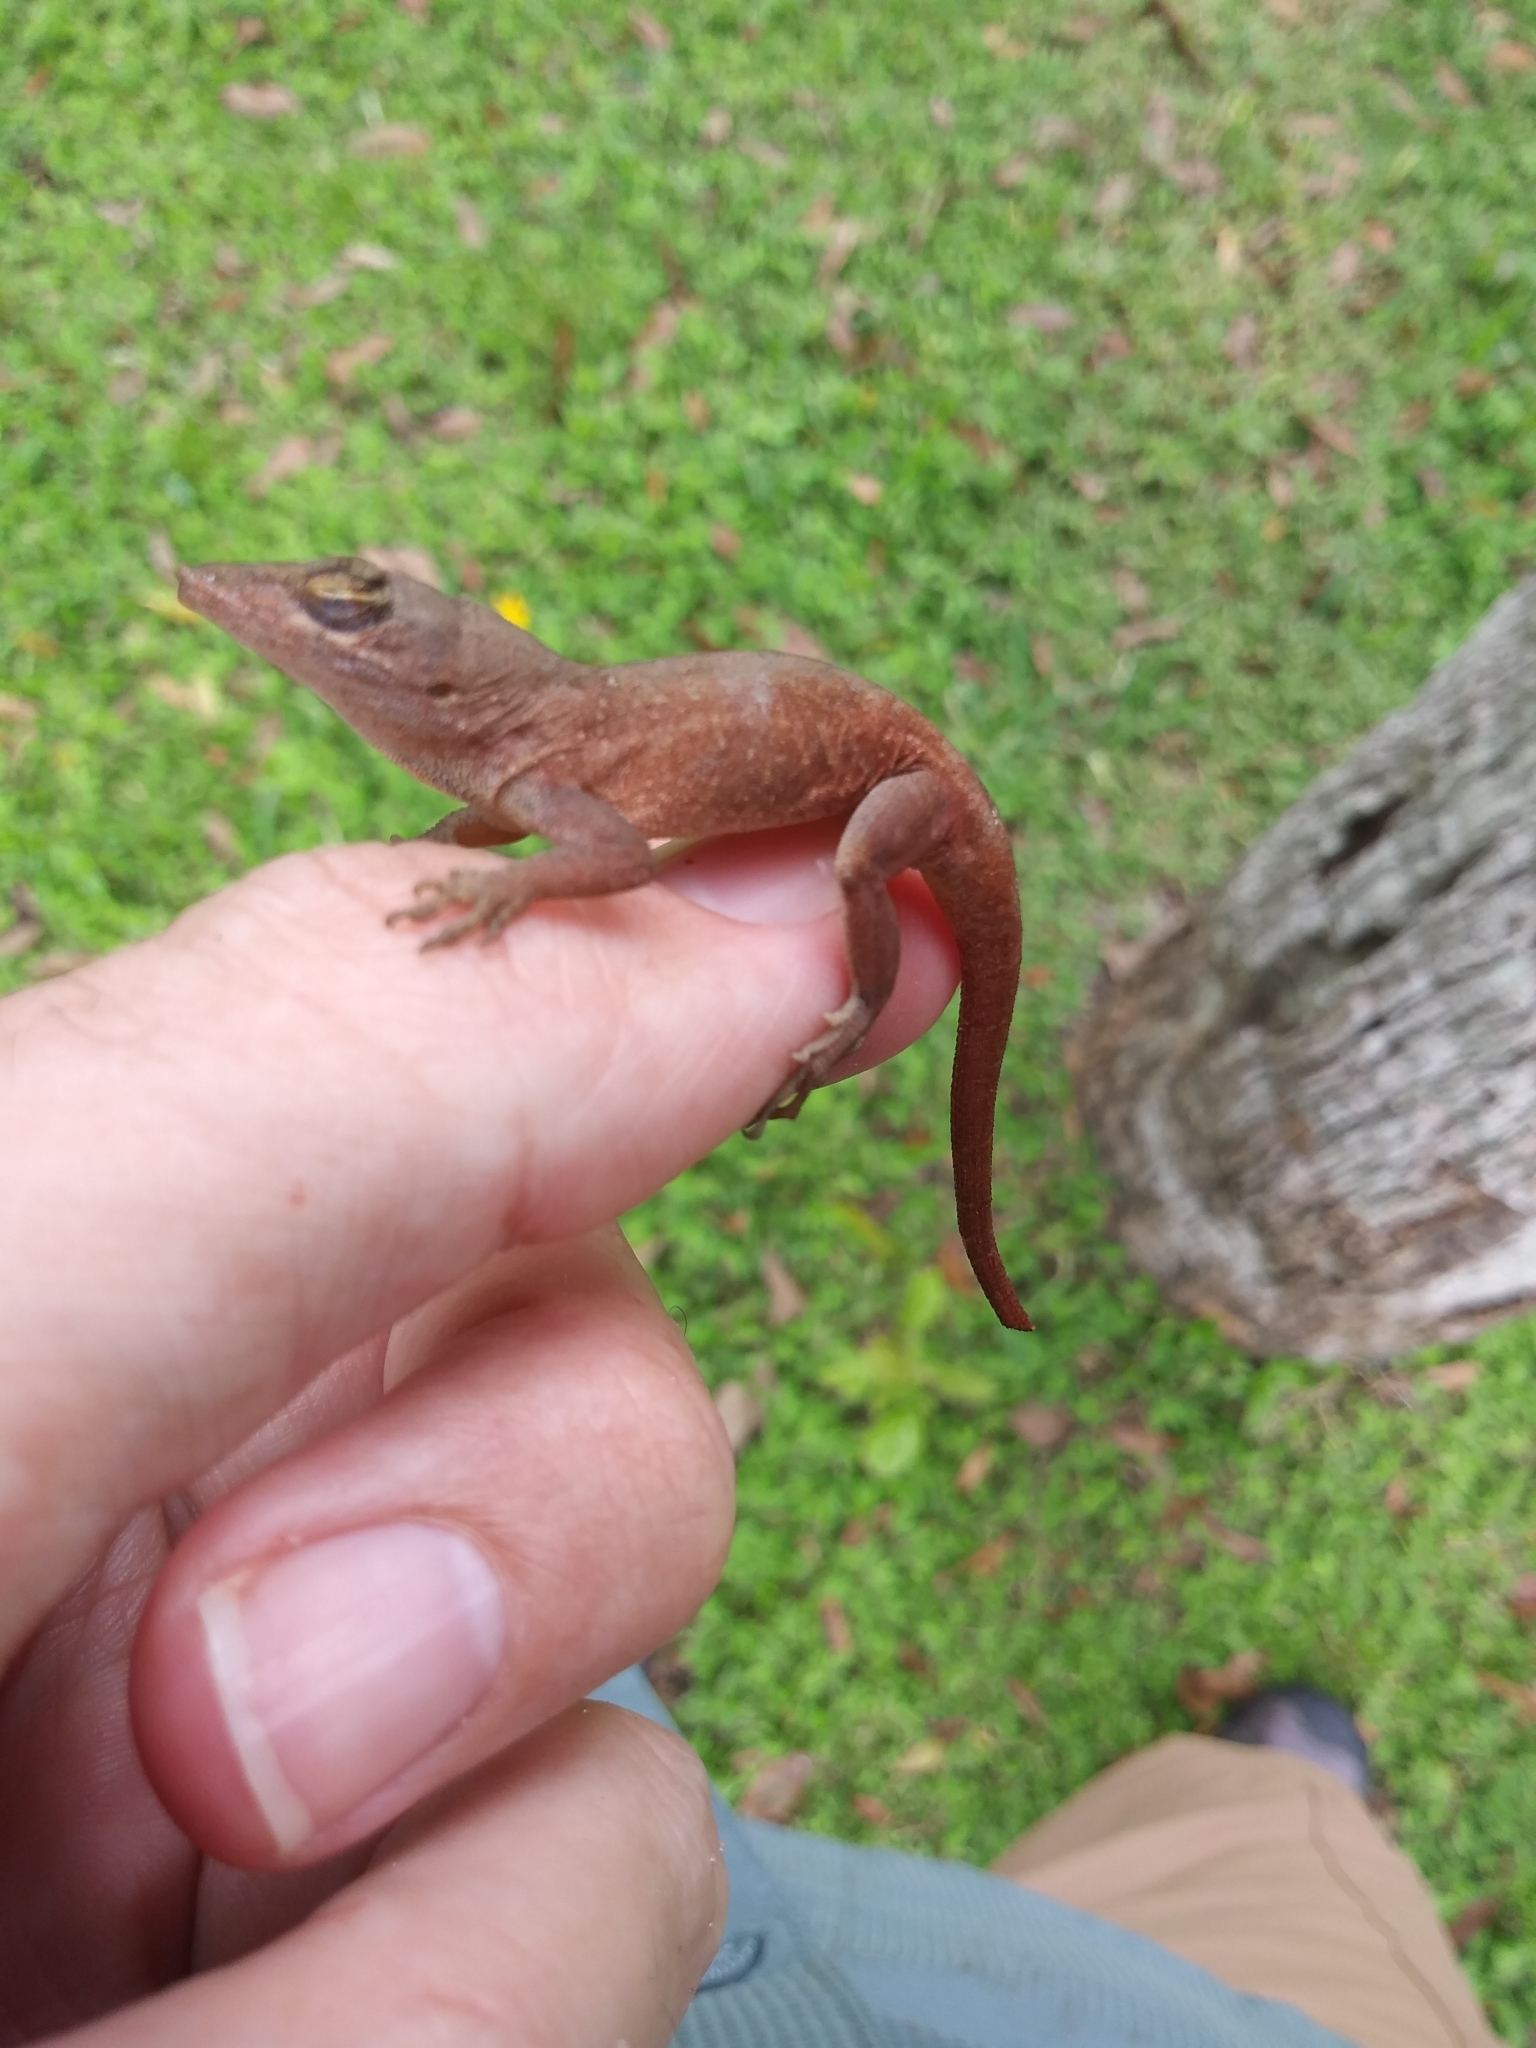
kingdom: Animalia
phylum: Chordata
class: Squamata
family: Dactyloidae
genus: Anolis
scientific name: Anolis sagrei
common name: Brown anole
